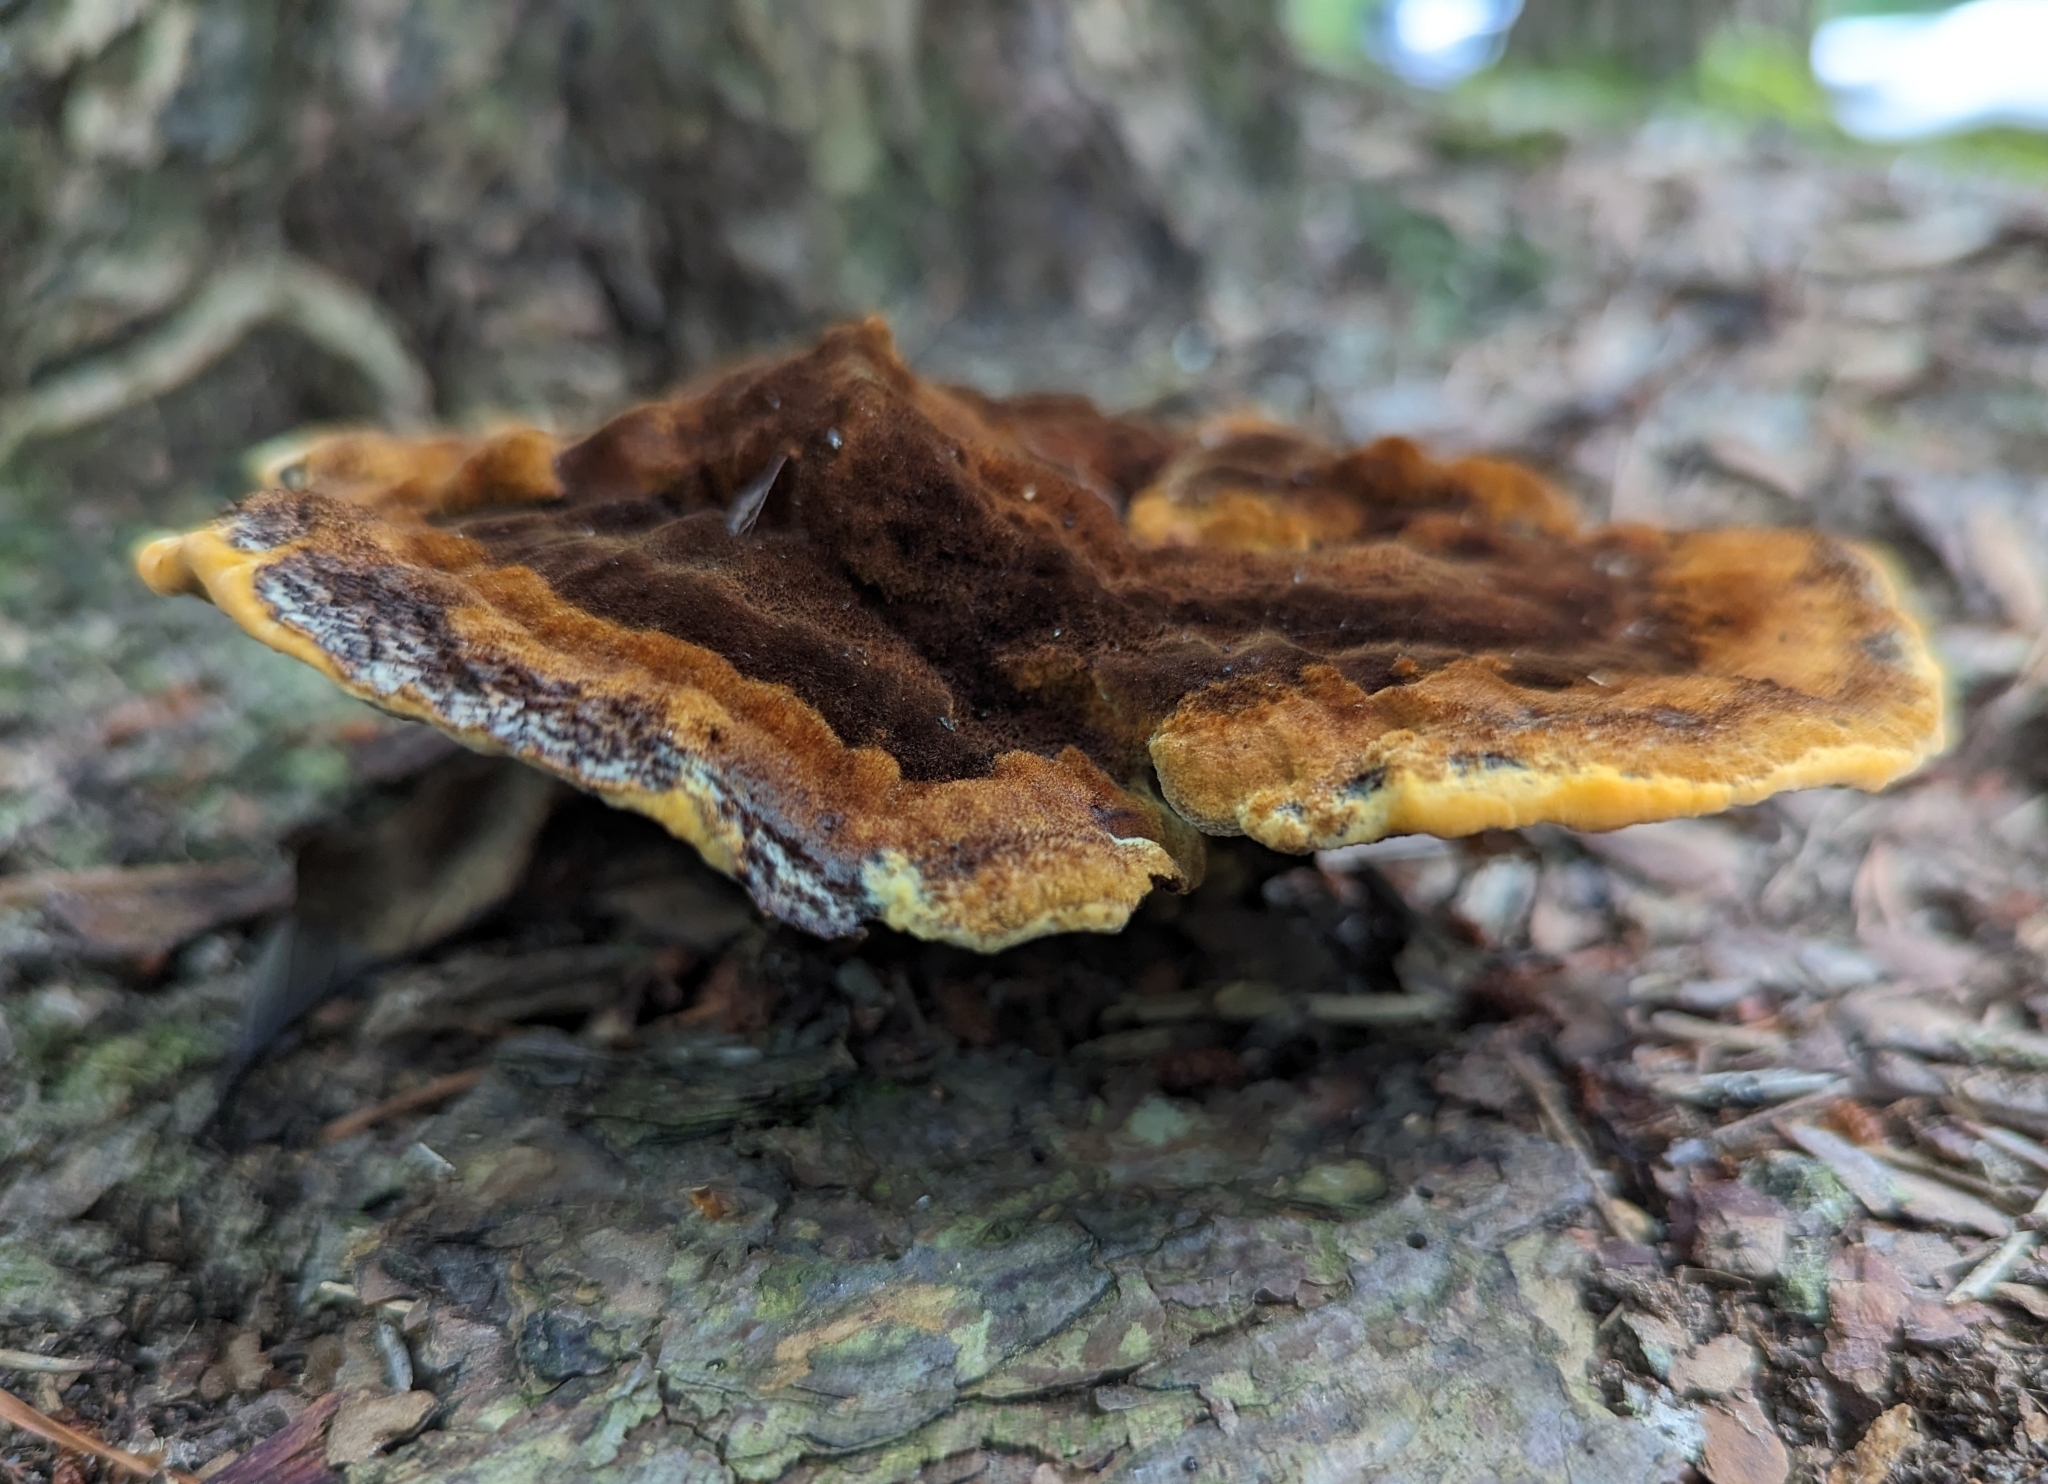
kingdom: Fungi
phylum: Basidiomycota
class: Agaricomycetes
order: Polyporales
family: Laetiporaceae
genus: Phaeolus
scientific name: Phaeolus schweinitzii
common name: Dyer's mazegill
